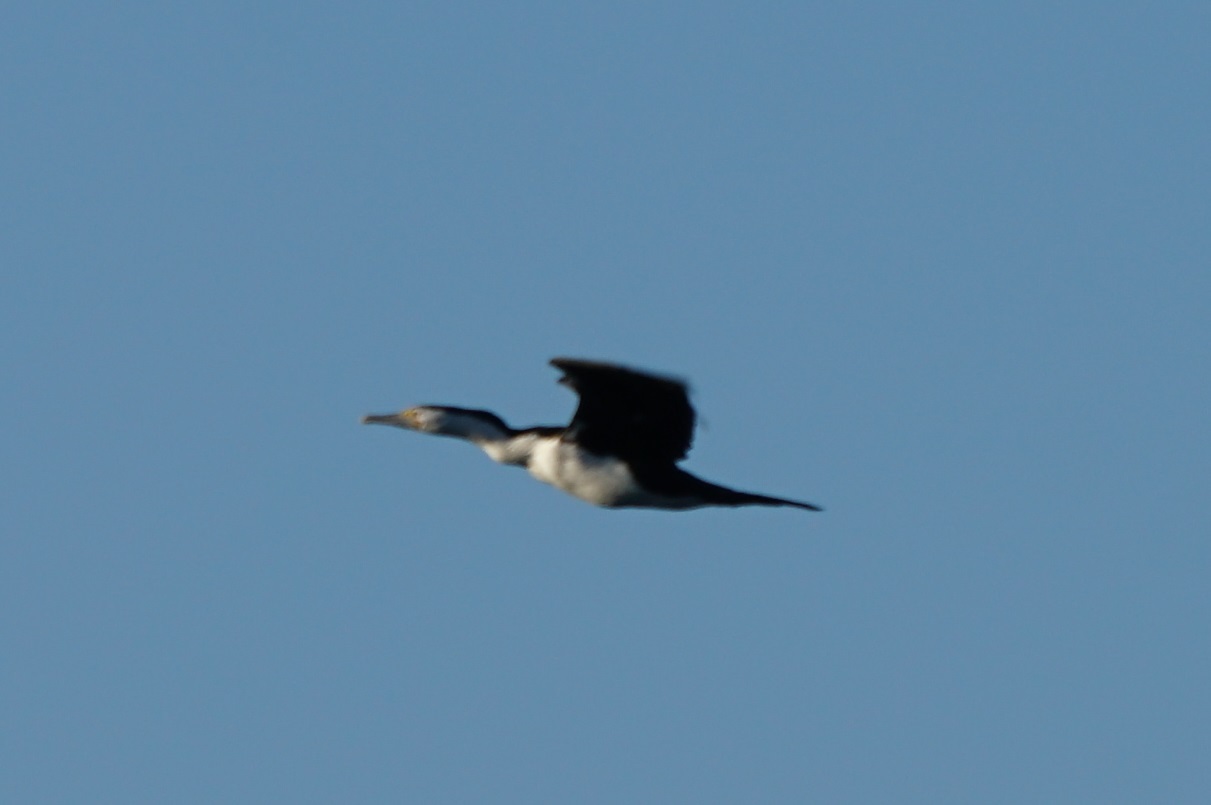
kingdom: Animalia
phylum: Chordata
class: Aves
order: Suliformes
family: Phalacrocoracidae
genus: Phalacrocorax
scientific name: Phalacrocorax varius
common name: Pied cormorant
